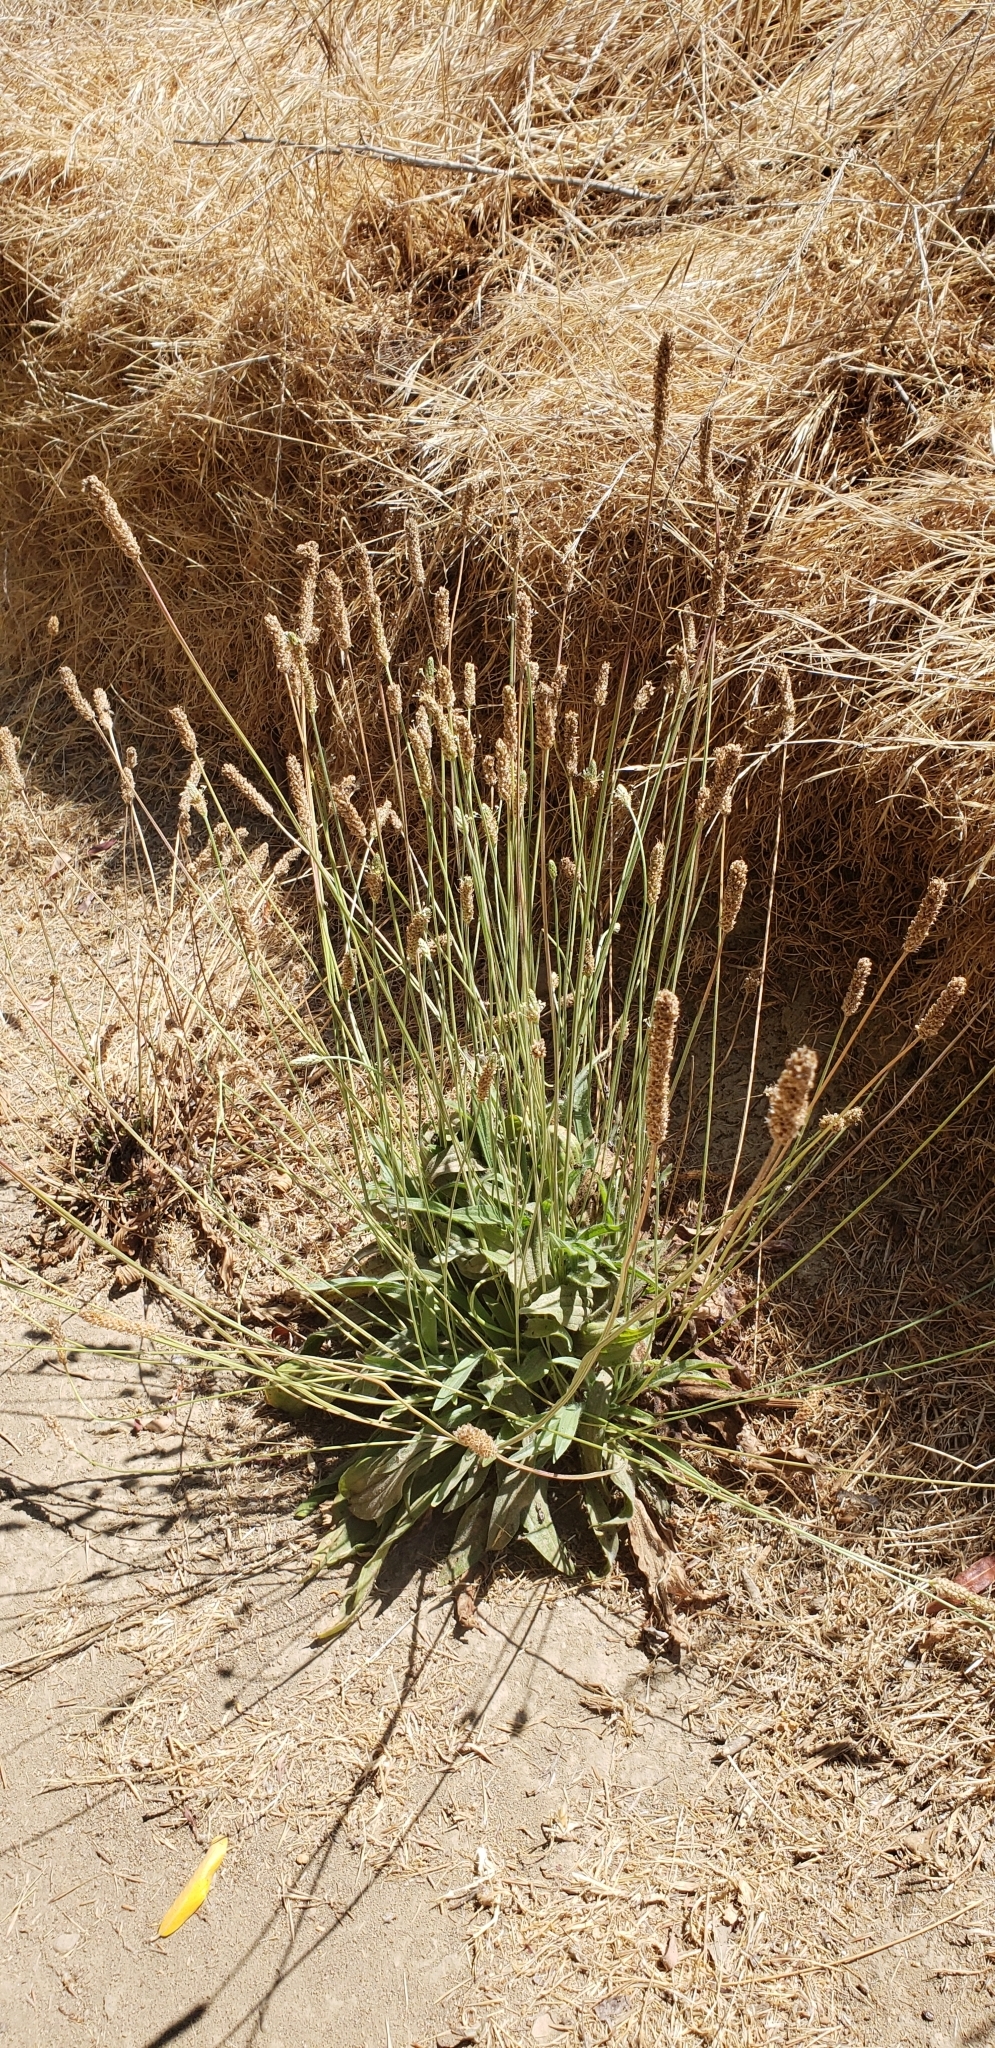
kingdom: Plantae
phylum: Tracheophyta
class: Magnoliopsida
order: Lamiales
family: Plantaginaceae
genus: Plantago
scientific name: Plantago lanceolata
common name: Ribwort plantain
